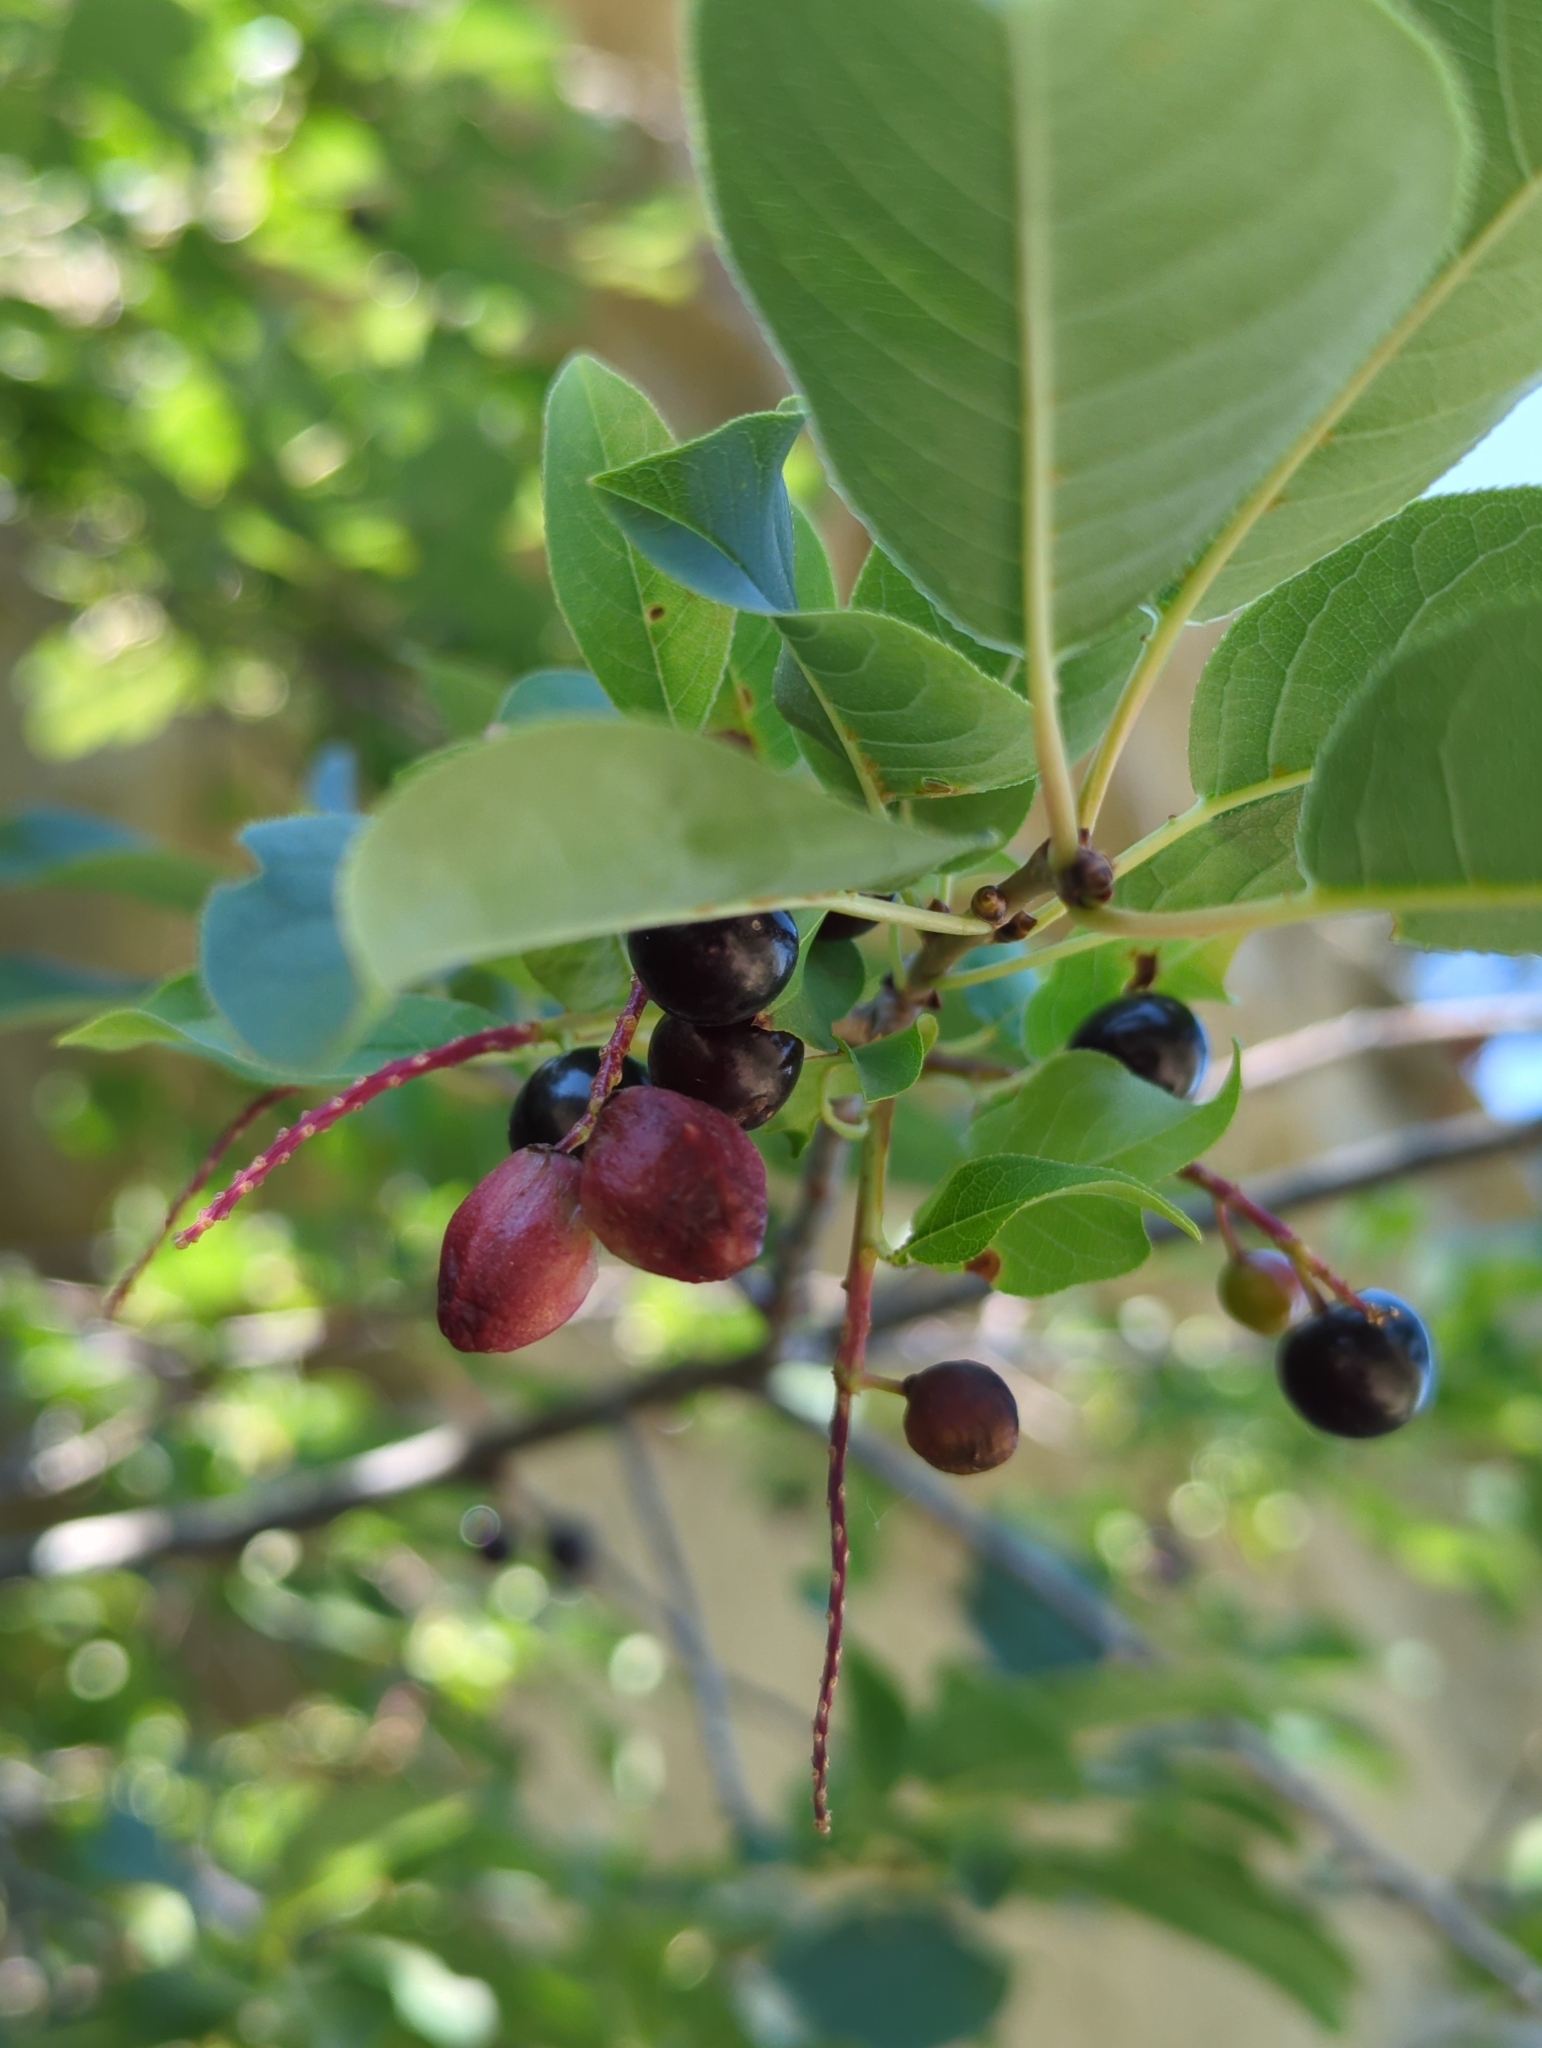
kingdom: Animalia
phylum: Arthropoda
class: Insecta
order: Diptera
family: Cecidomyiidae
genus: Contarinia
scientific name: Contarinia virginianiae
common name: Chokecherry midge
